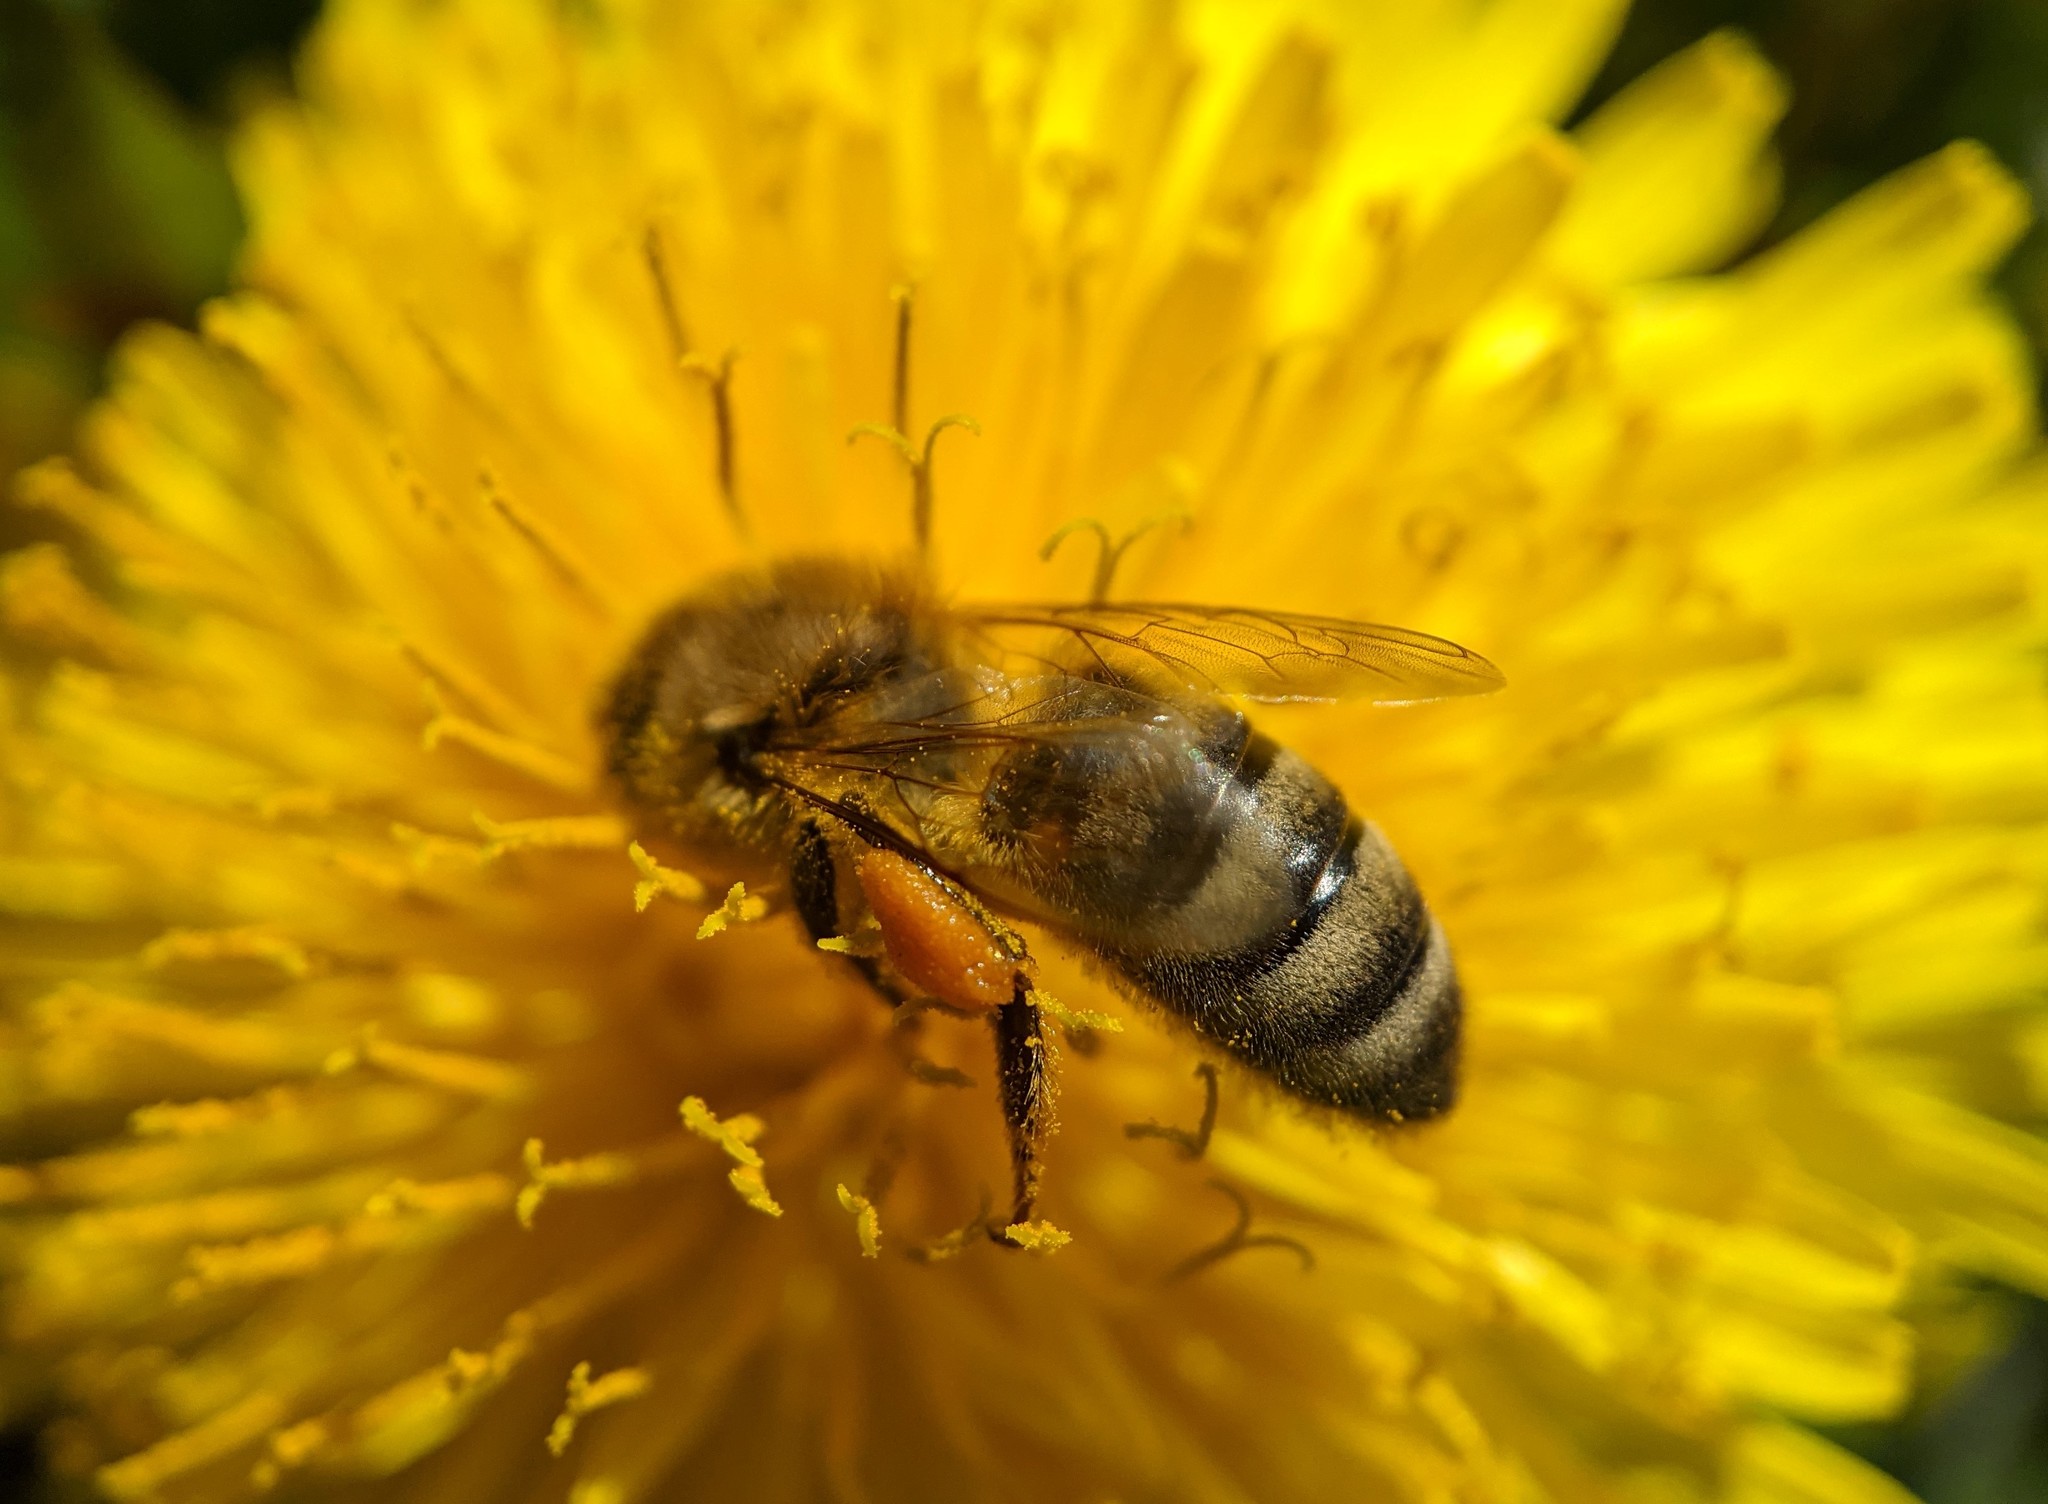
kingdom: Animalia
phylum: Arthropoda
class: Insecta
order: Hymenoptera
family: Apidae
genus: Apis
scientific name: Apis mellifera
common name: Honey bee
